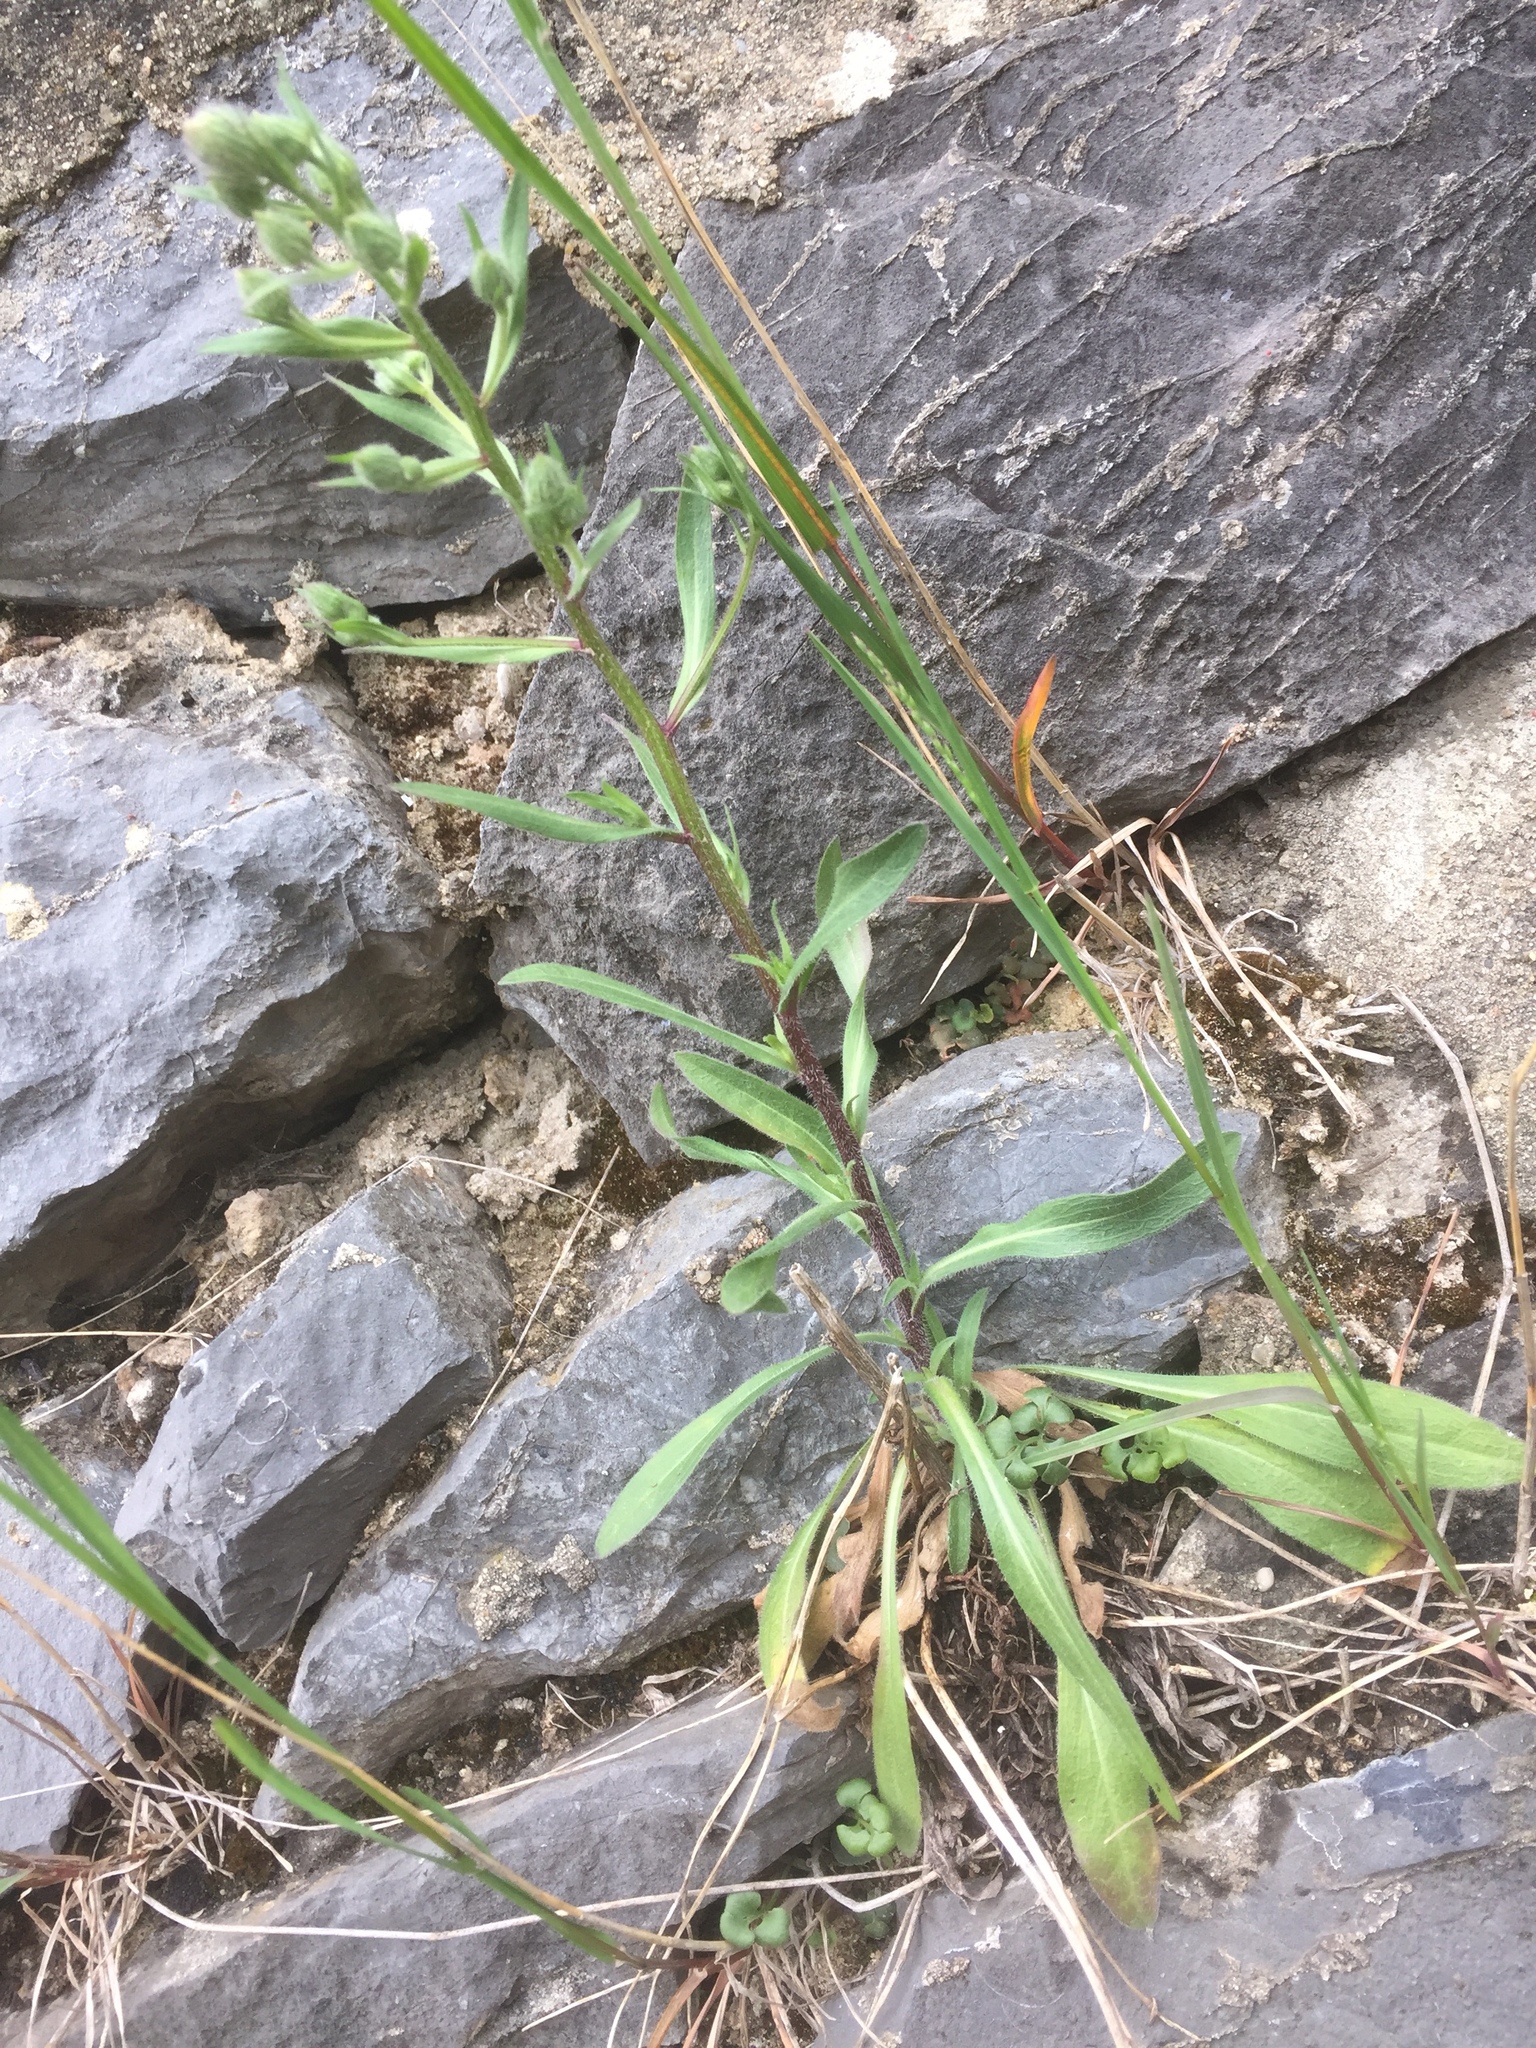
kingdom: Plantae
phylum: Tracheophyta
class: Magnoliopsida
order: Asterales
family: Asteraceae
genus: Erigeron
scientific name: Erigeron acris
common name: Blue fleabane
